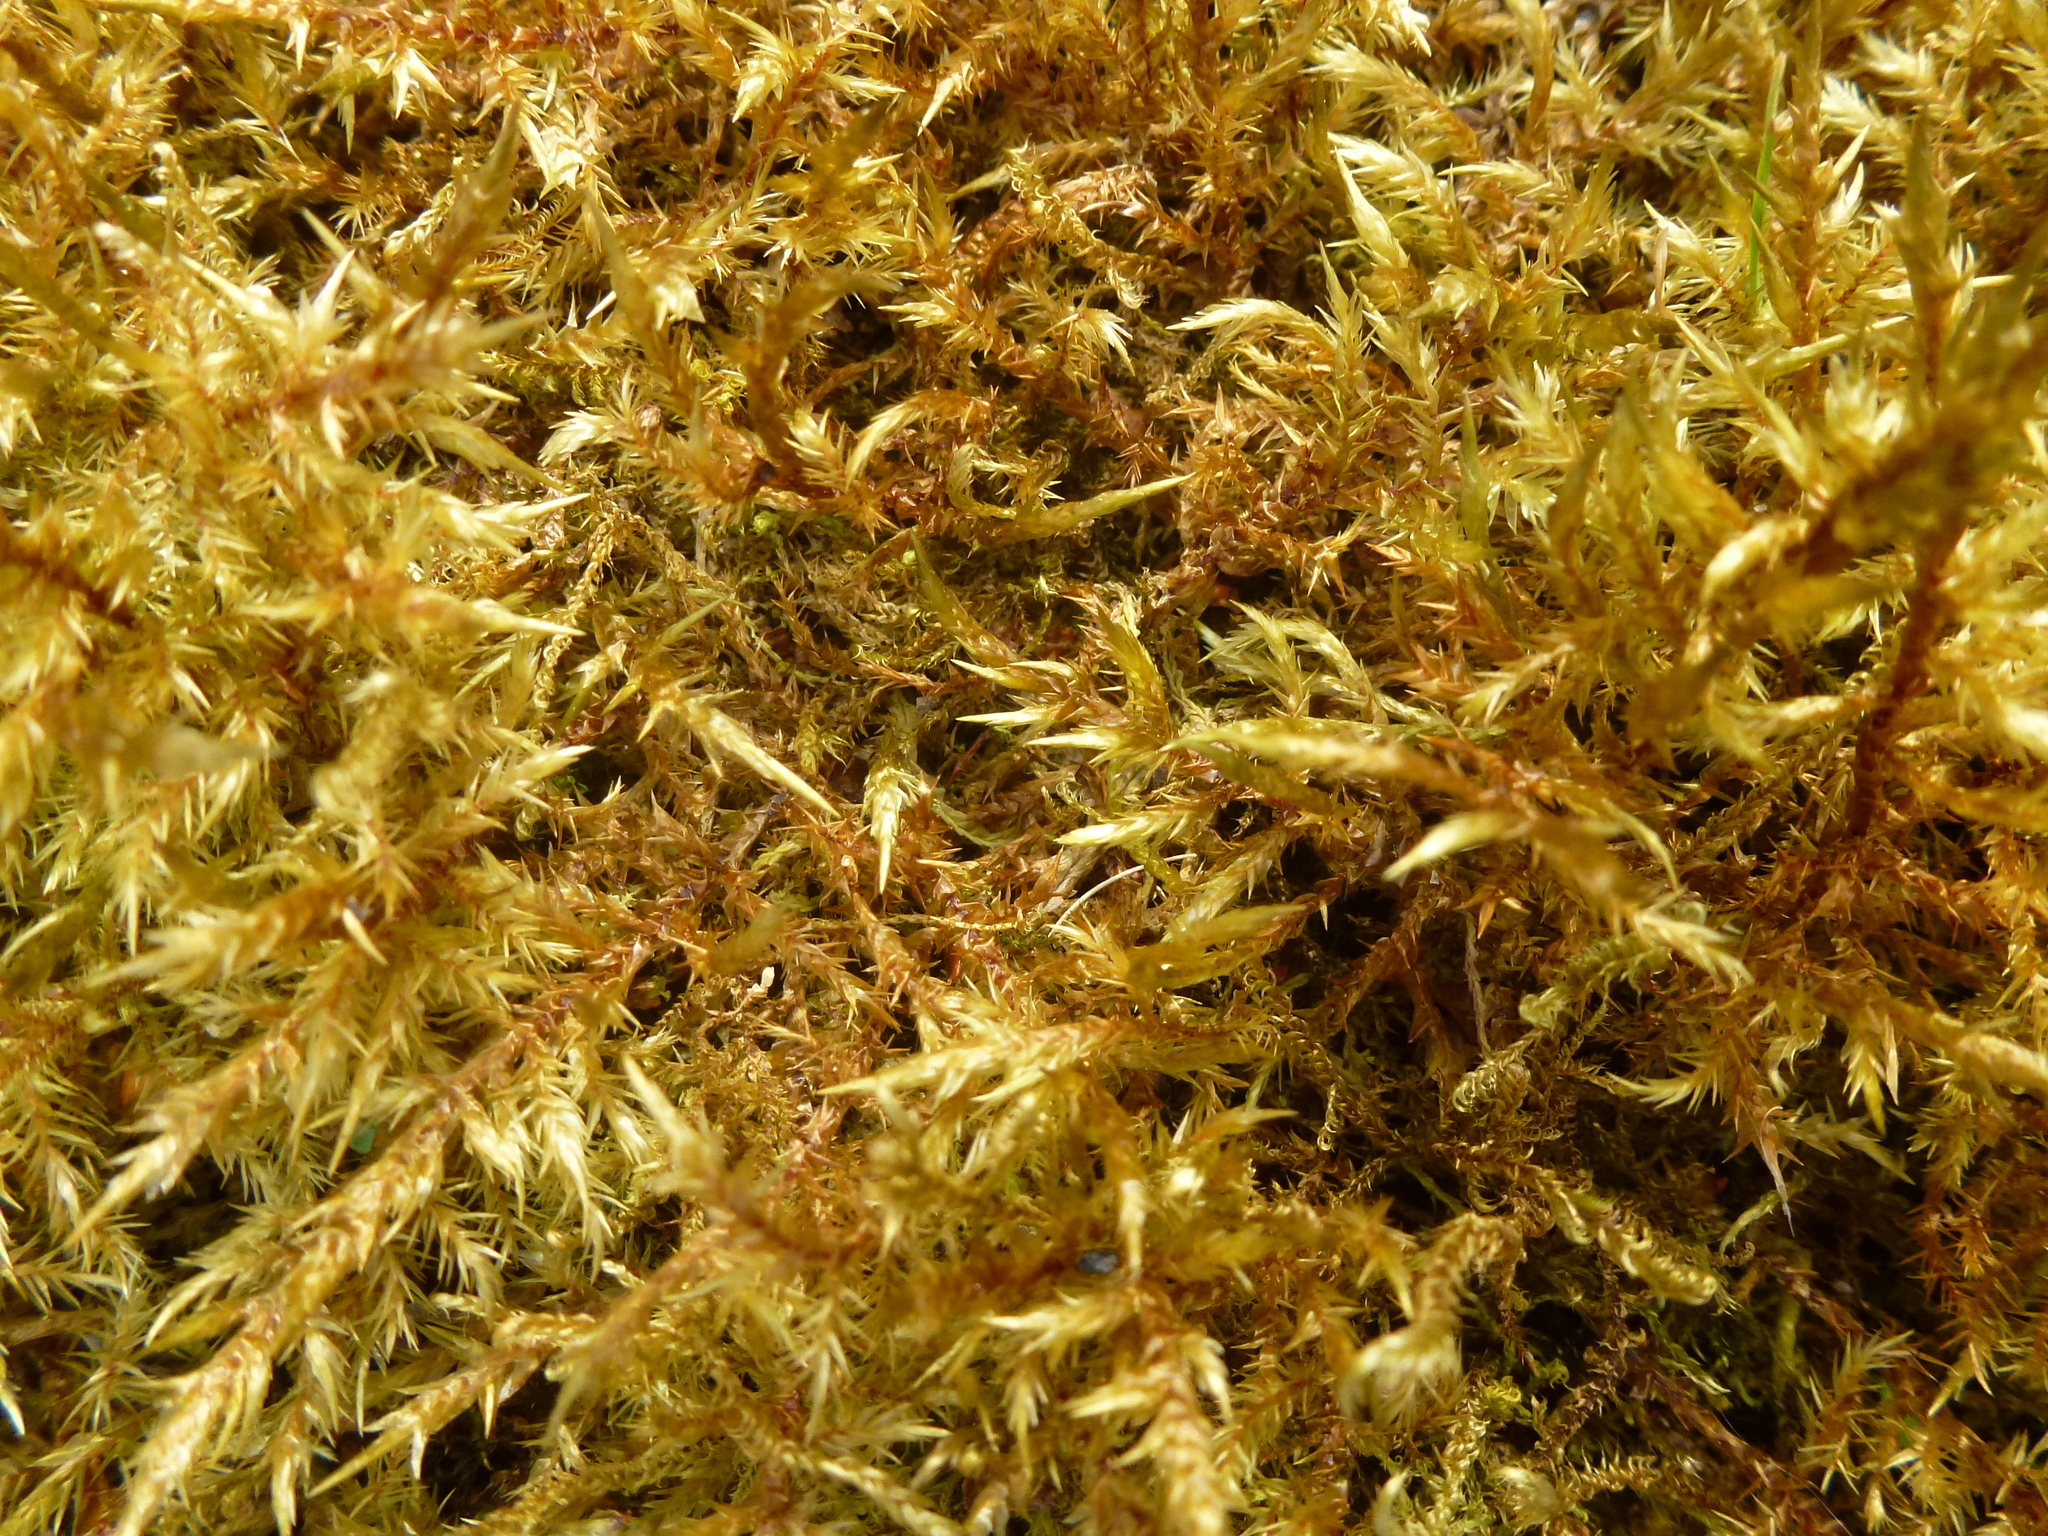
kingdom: Plantae
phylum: Bryophyta
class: Bryopsida
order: Hypnales
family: Pylaisiaceae
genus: Calliergonella
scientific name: Calliergonella cuspidata
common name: Common large wetland moss
